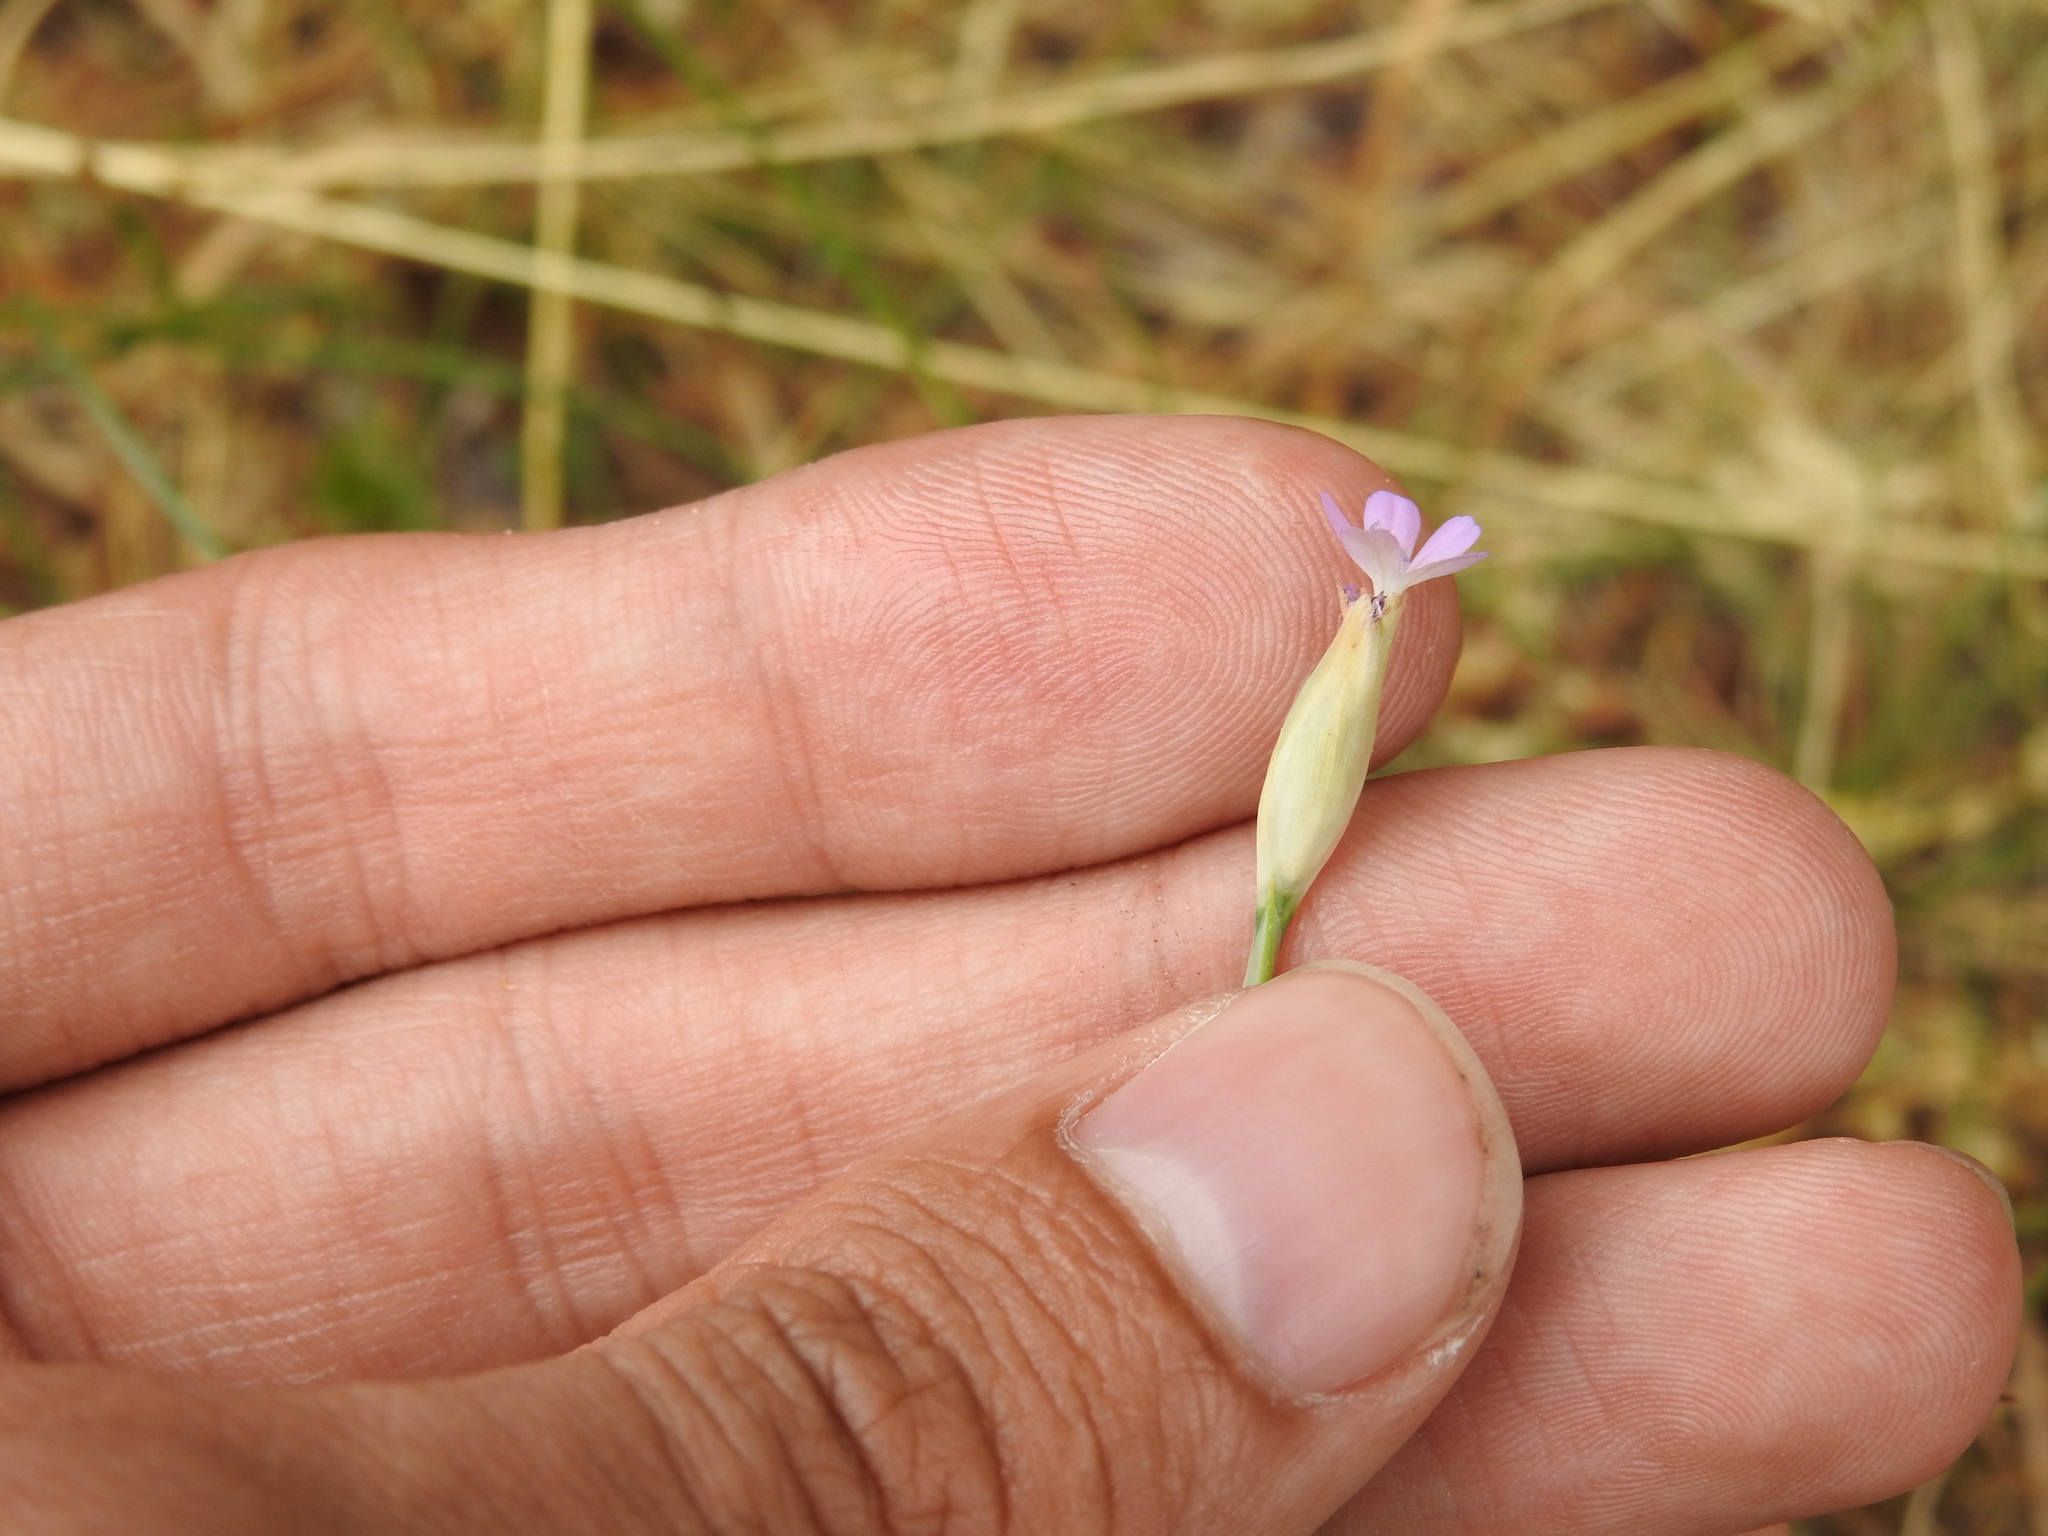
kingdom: Plantae
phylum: Tracheophyta
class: Magnoliopsida
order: Caryophyllales
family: Caryophyllaceae
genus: Petrorhagia
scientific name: Petrorhagia prolifera
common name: Proliferous pink
